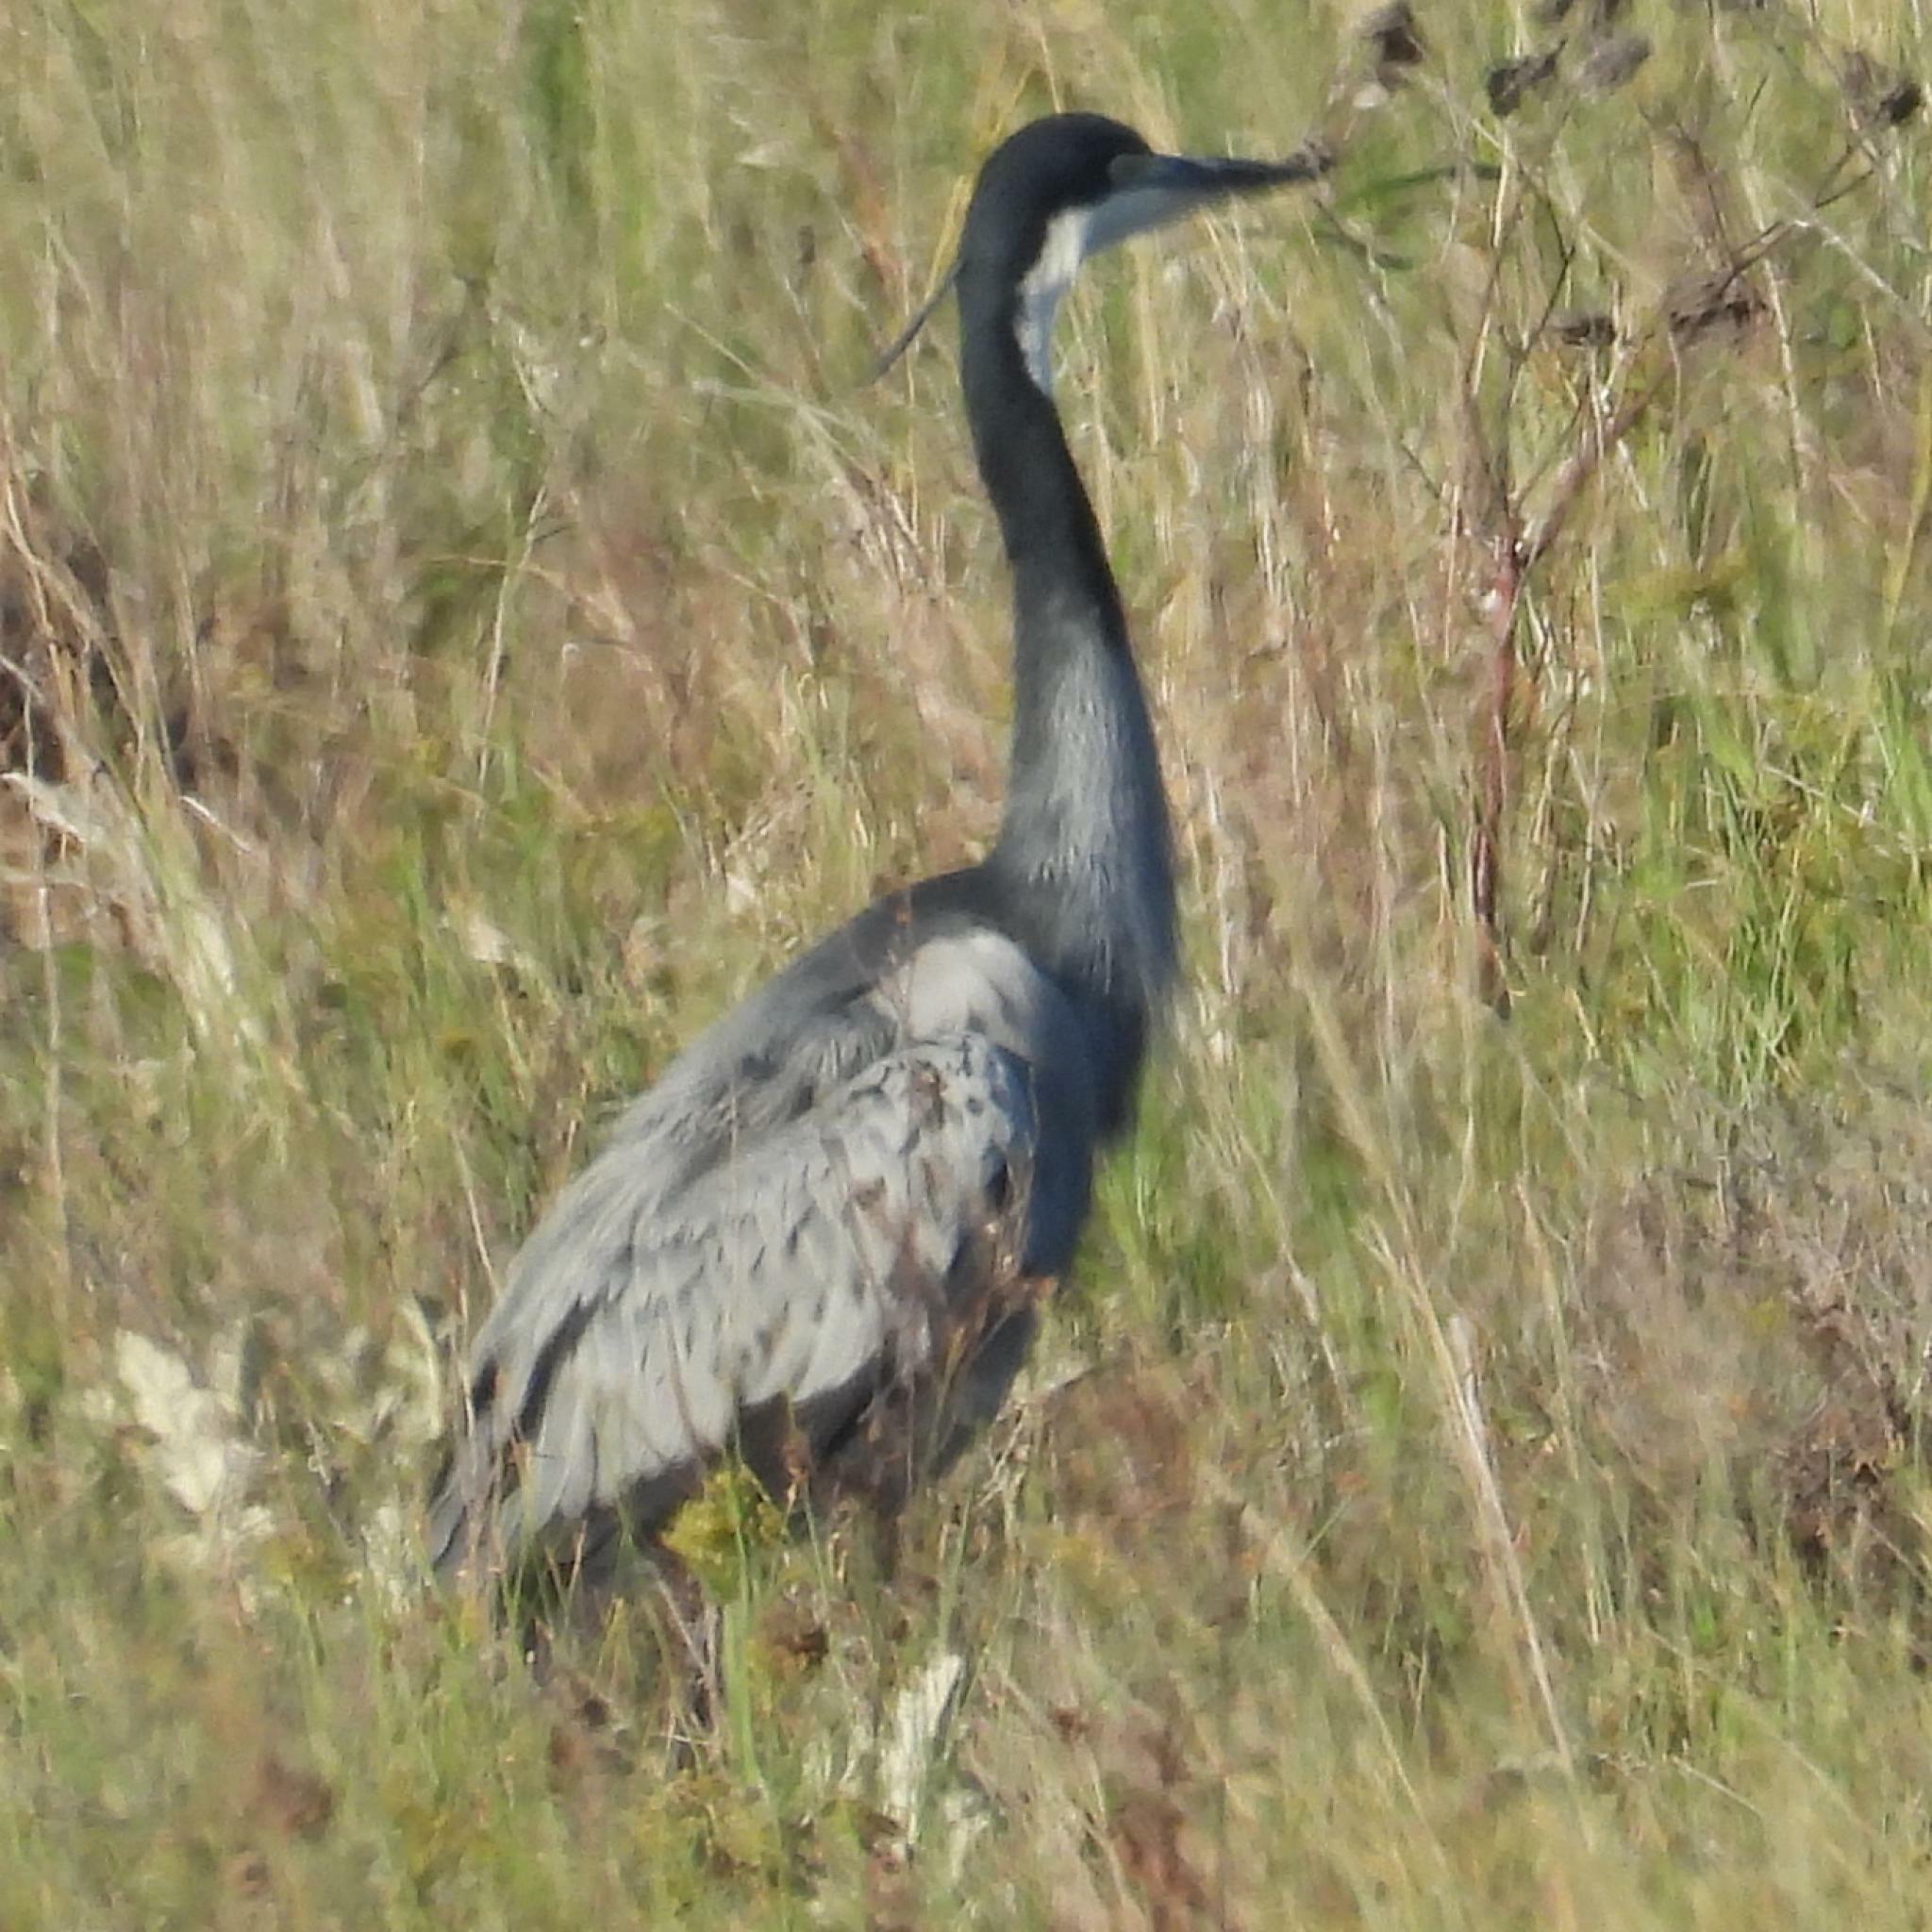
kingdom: Animalia
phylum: Chordata
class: Aves
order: Pelecaniformes
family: Ardeidae
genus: Ardea
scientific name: Ardea melanocephala
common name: Black-headed heron
